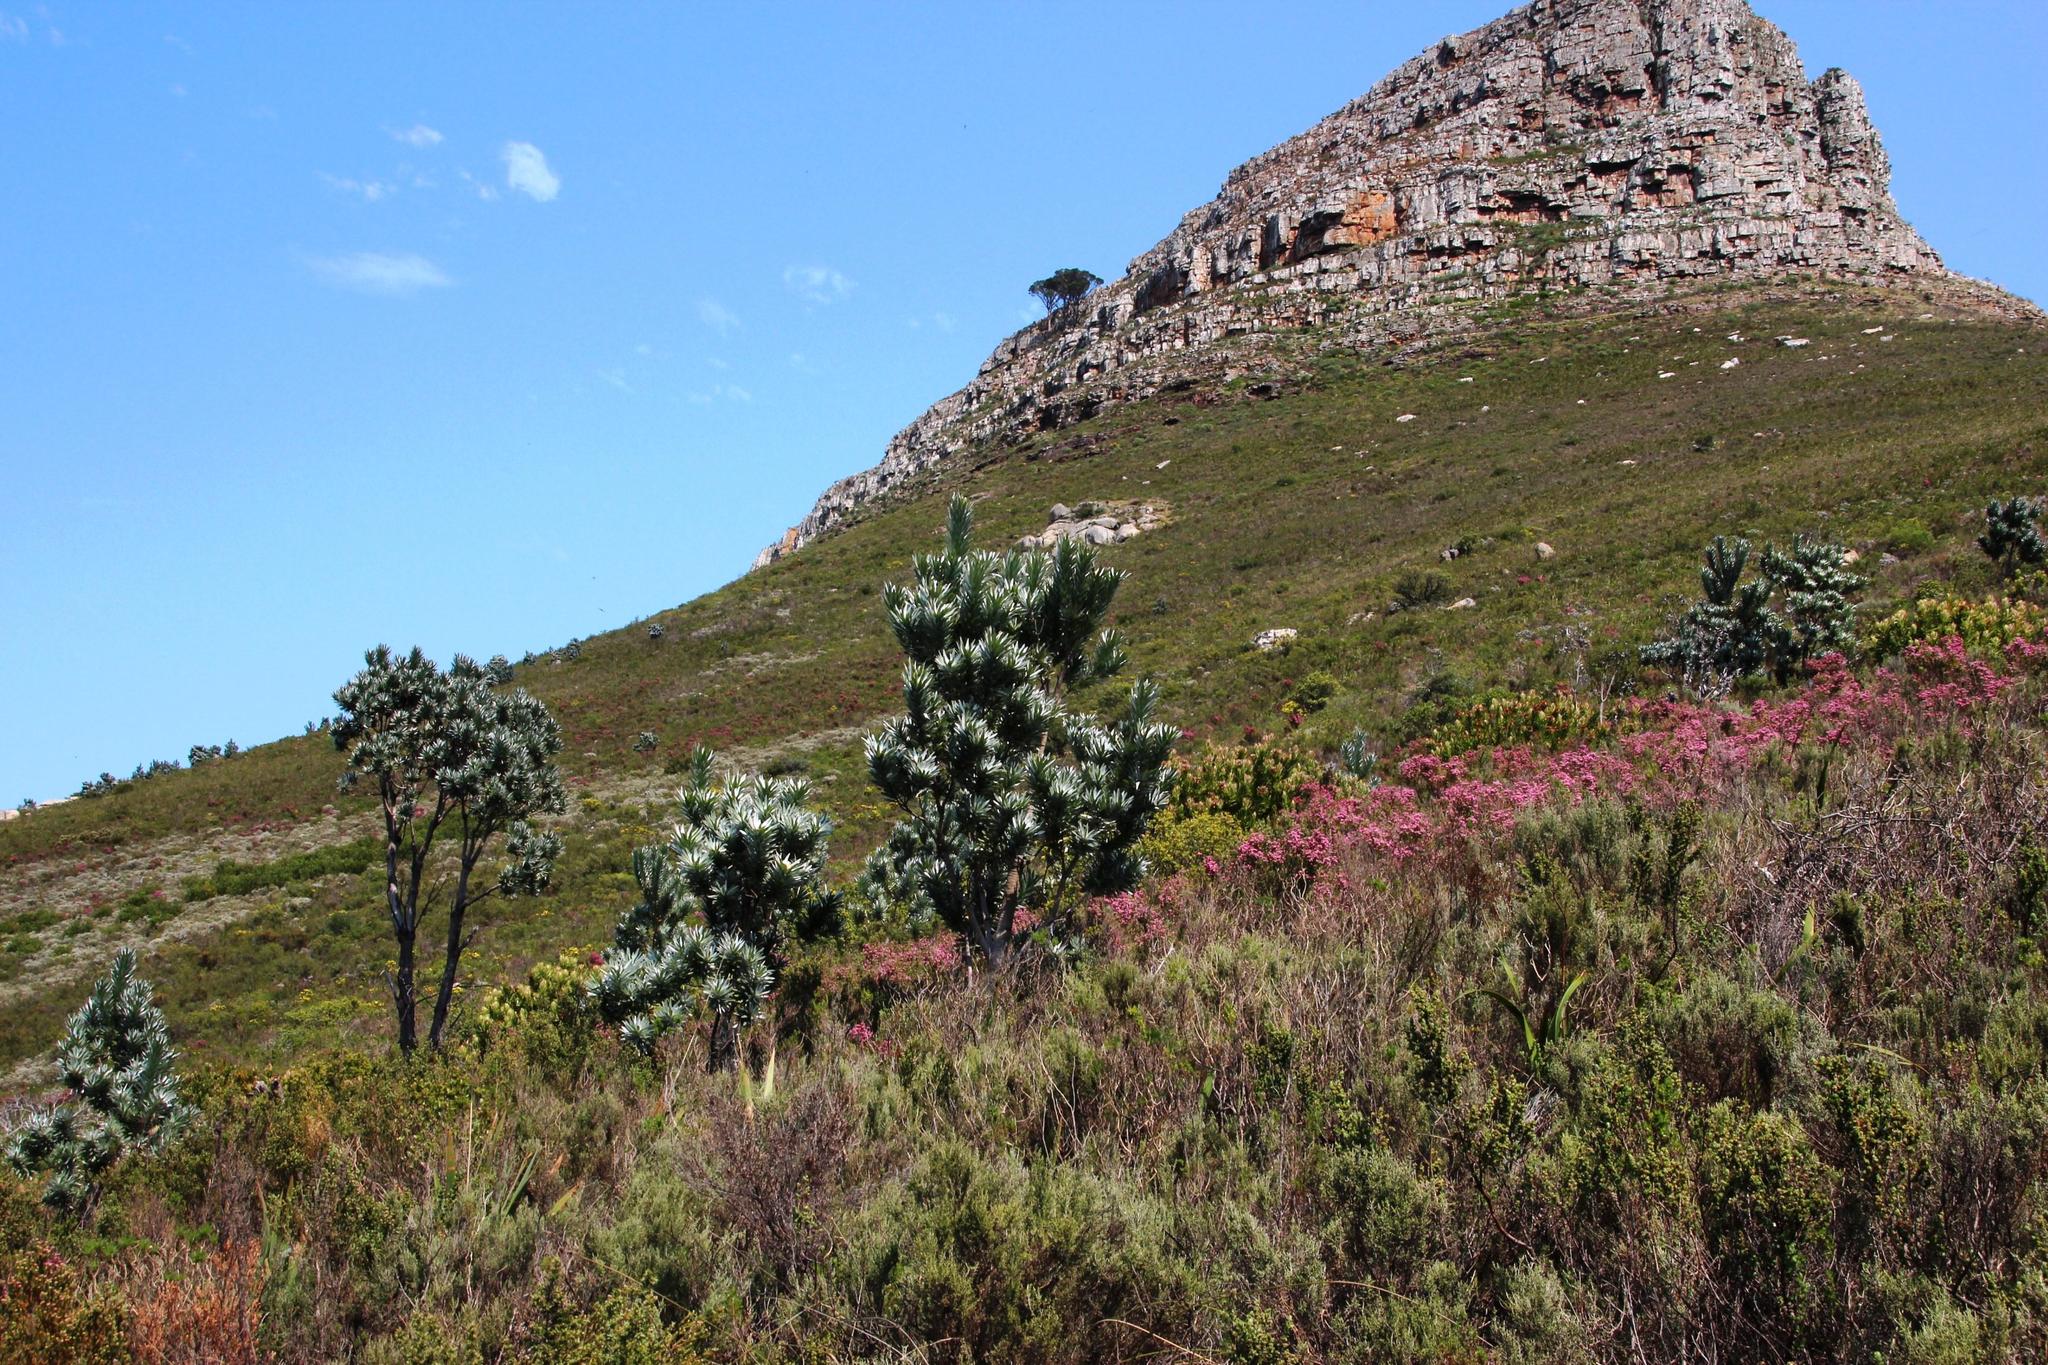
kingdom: Plantae
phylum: Tracheophyta
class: Magnoliopsida
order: Proteales
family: Proteaceae
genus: Leucadendron
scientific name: Leucadendron argenteum
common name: Cape silver tree
